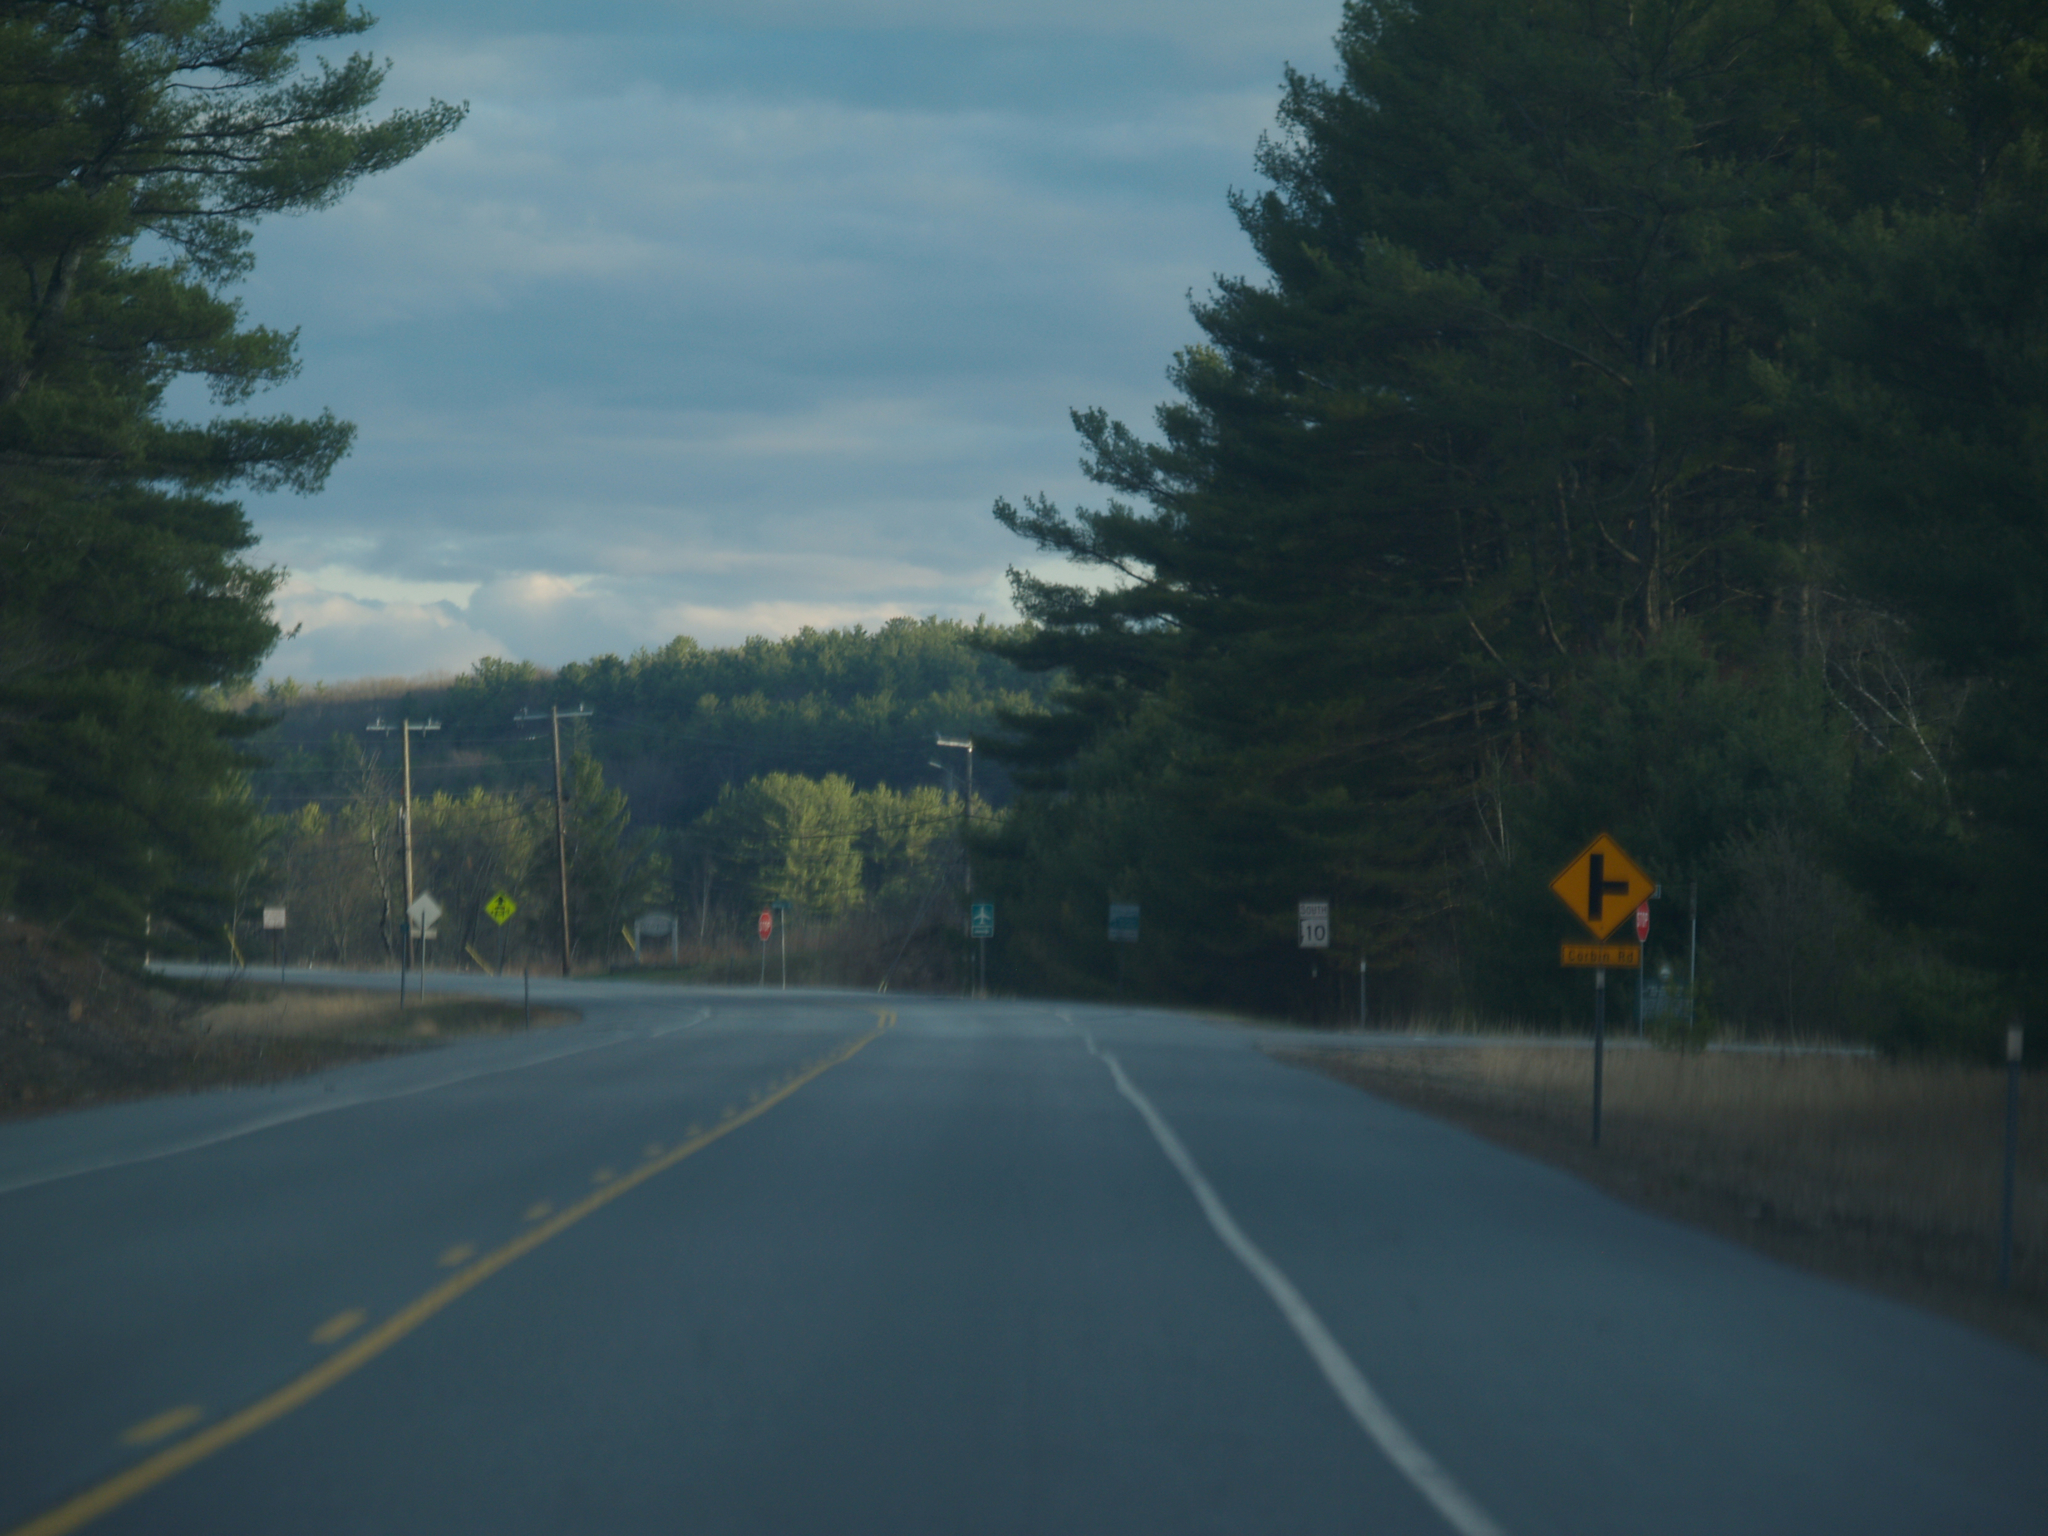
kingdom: Plantae
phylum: Tracheophyta
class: Pinopsida
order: Pinales
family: Pinaceae
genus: Pinus
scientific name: Pinus strobus
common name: Weymouth pine
